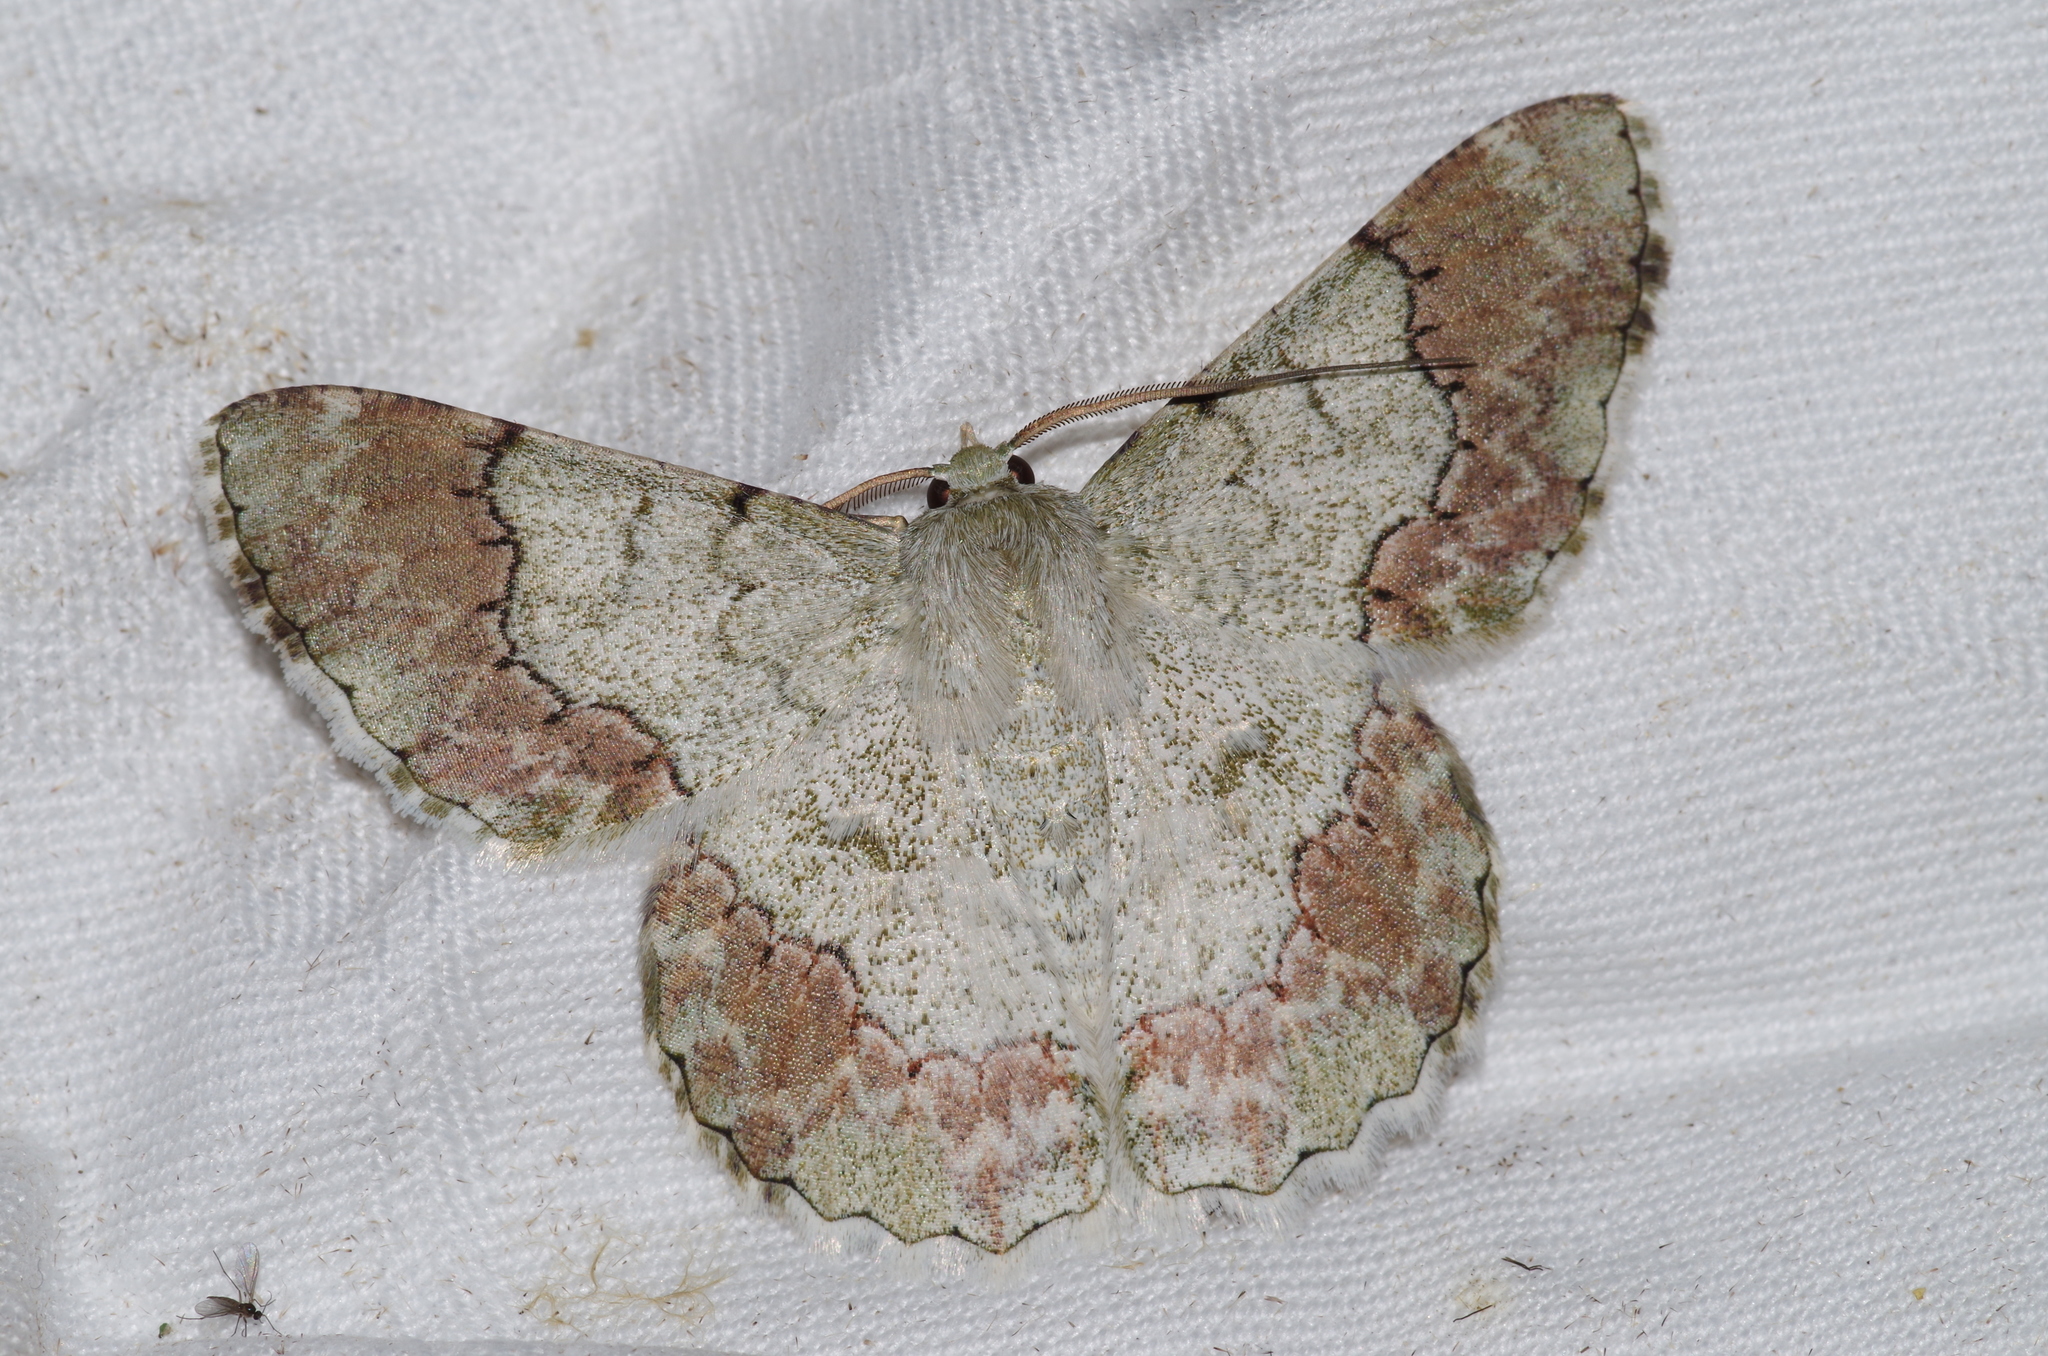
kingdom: Animalia
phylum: Arthropoda
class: Insecta
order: Lepidoptera
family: Geometridae
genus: Pingasa
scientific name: Pingasa ruginaria
